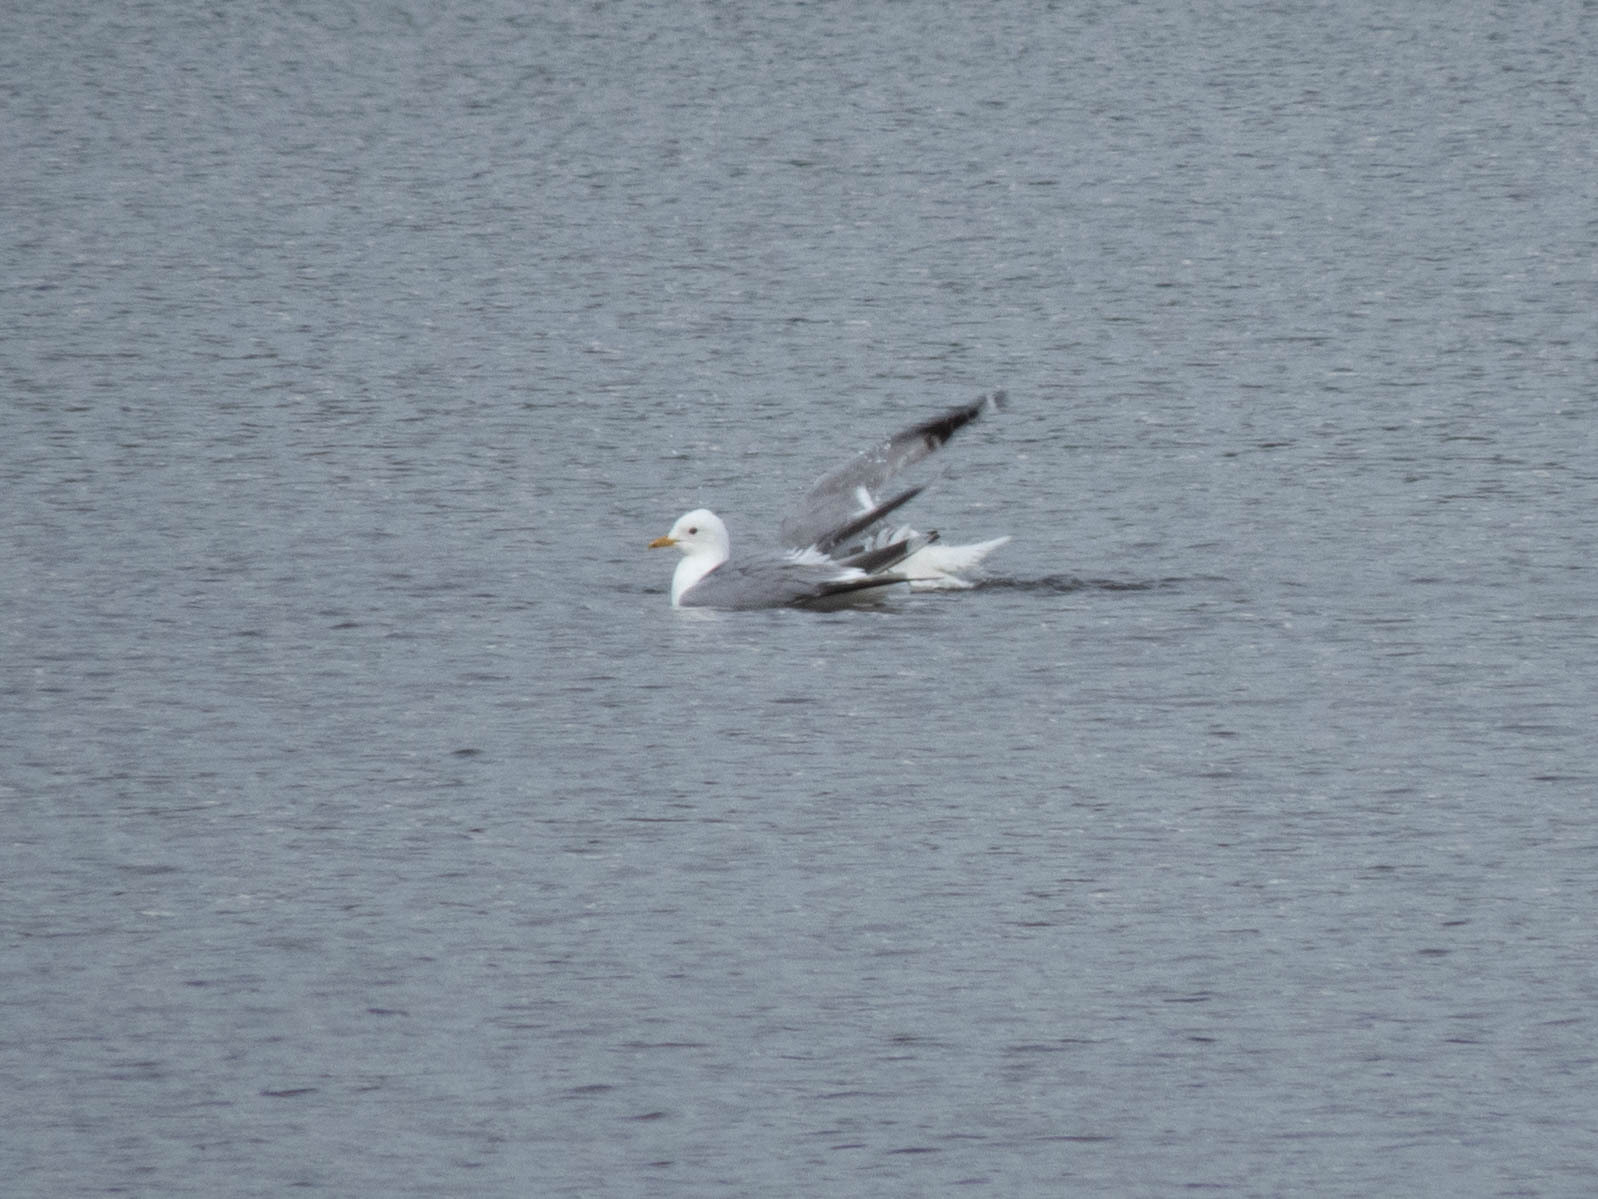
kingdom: Animalia
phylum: Chordata
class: Aves
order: Charadriiformes
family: Laridae
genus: Larus
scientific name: Larus canus
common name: Mew gull
